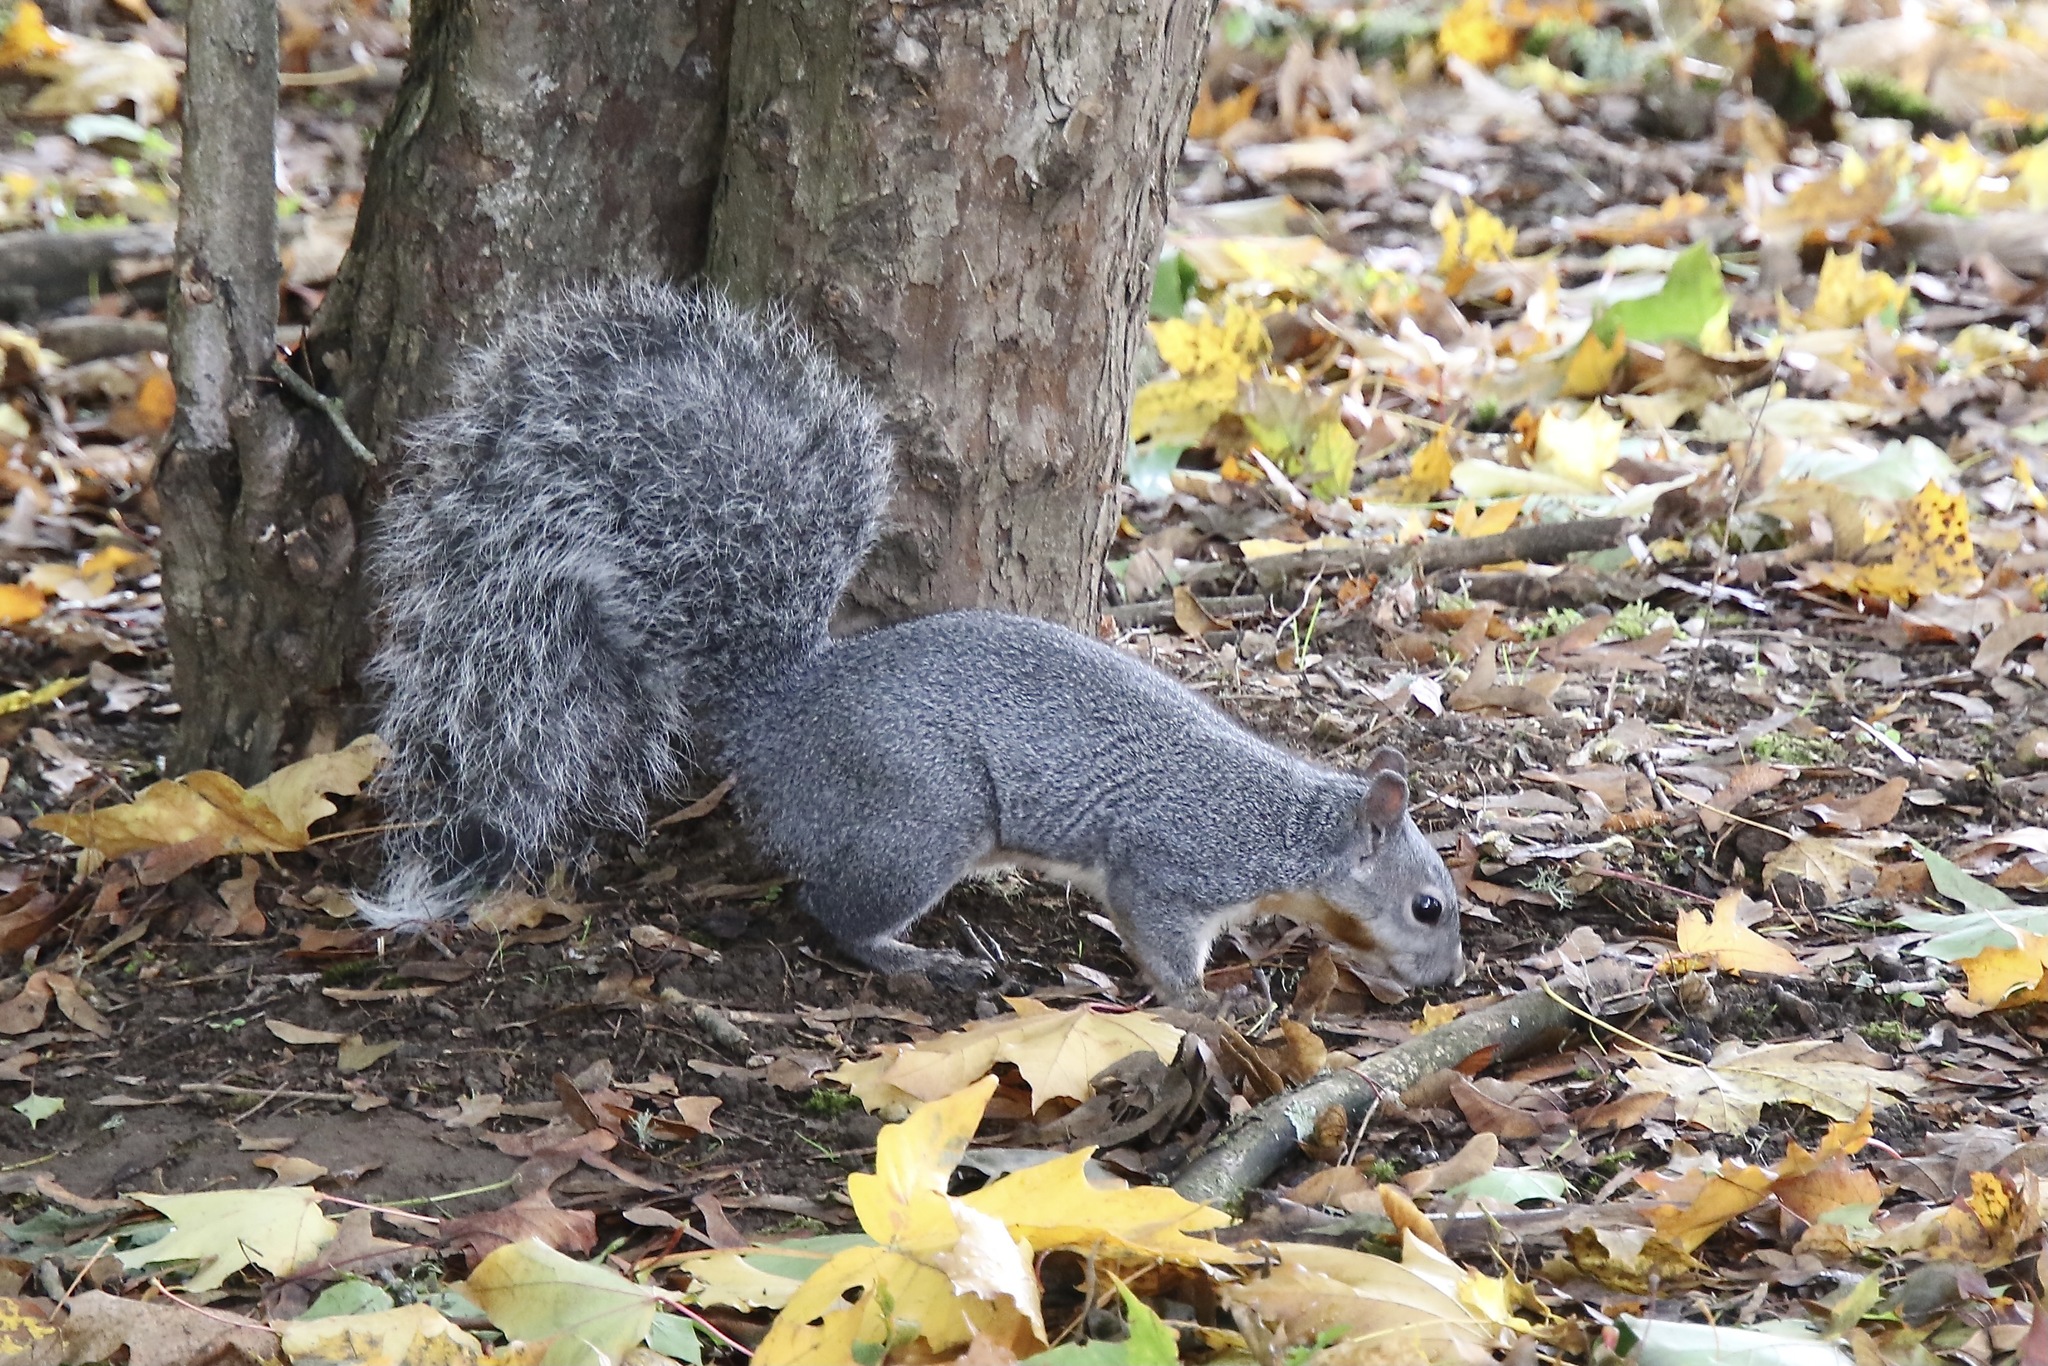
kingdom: Animalia
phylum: Chordata
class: Mammalia
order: Rodentia
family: Sciuridae
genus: Sciurus
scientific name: Sciurus griseus
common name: Western gray squirrel
